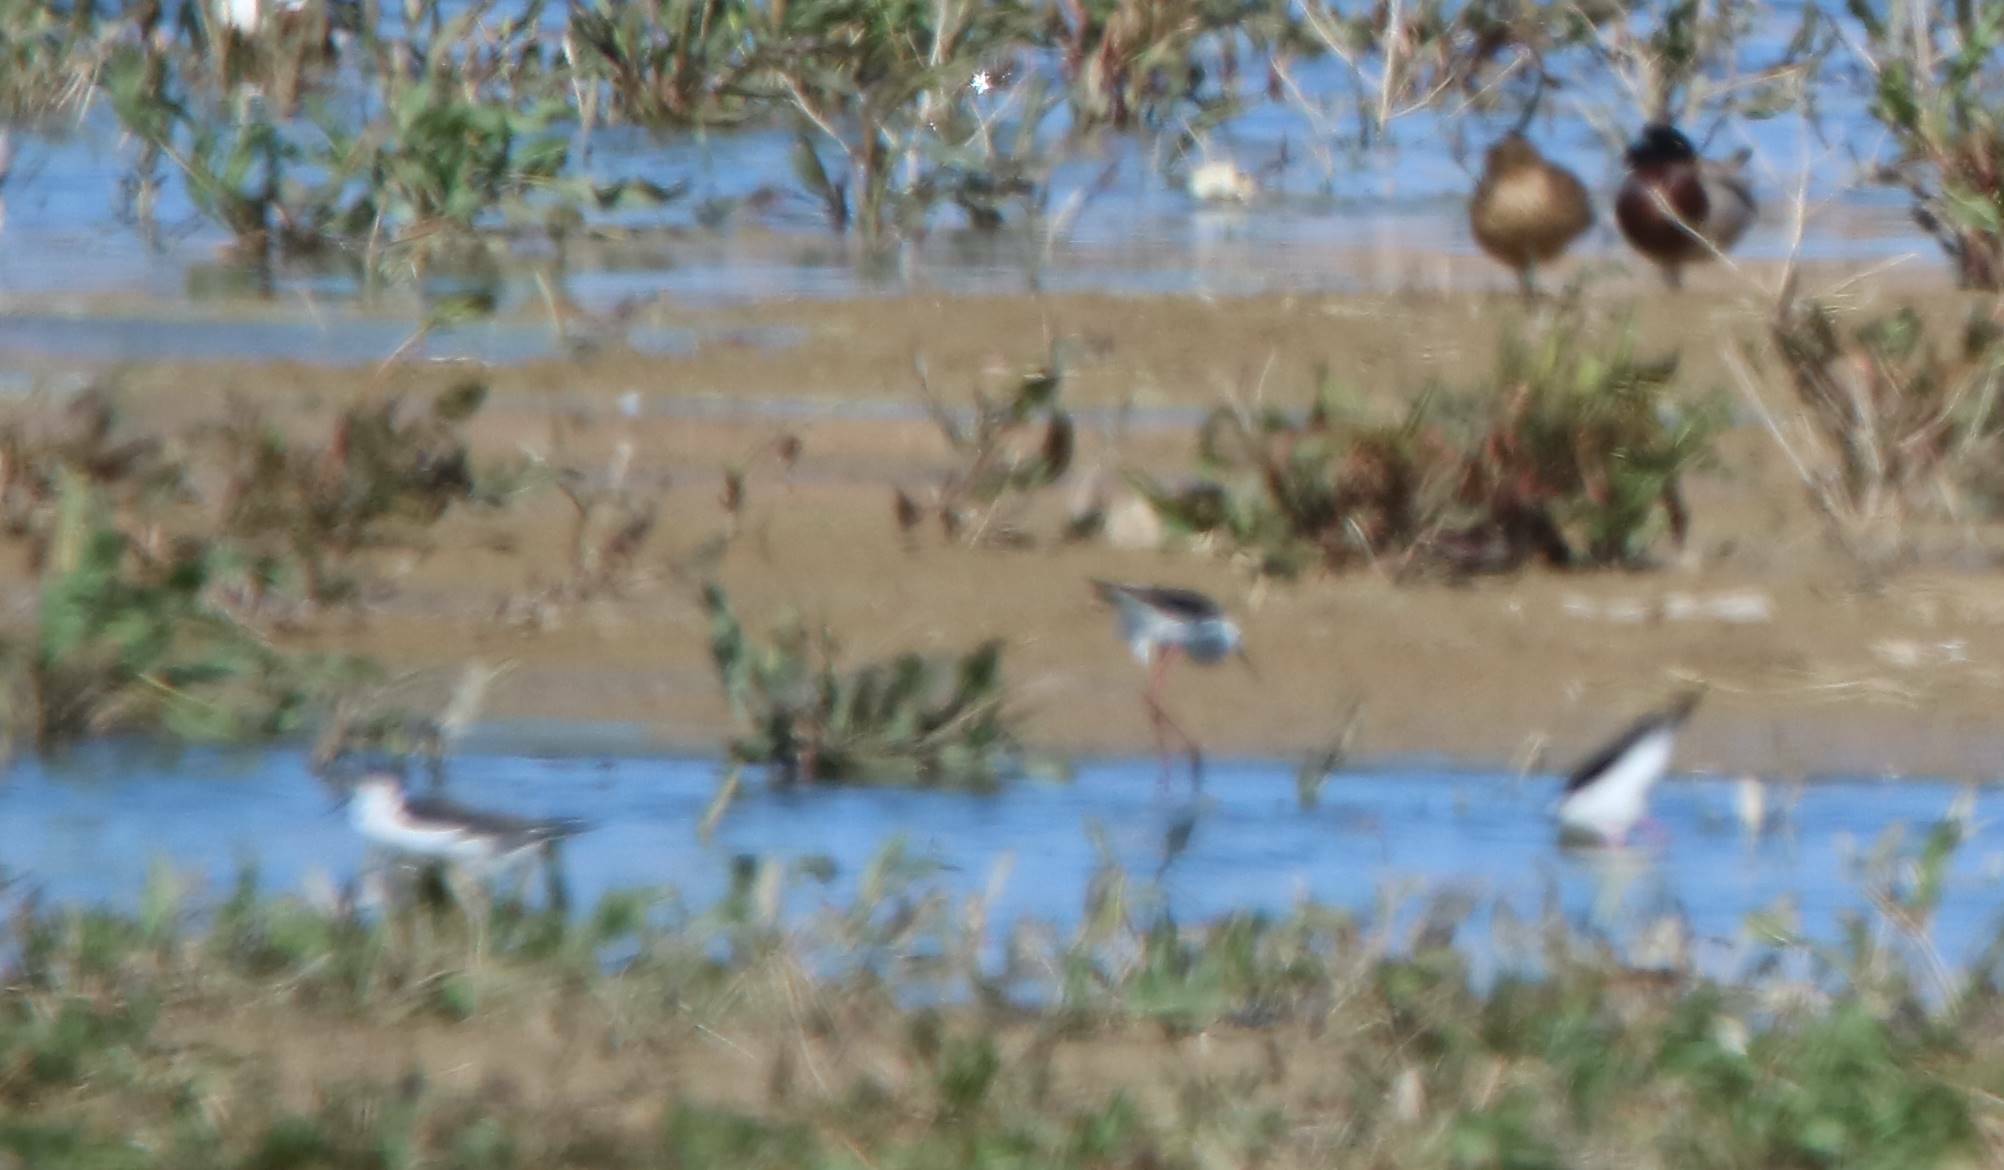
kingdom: Animalia
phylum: Chordata
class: Aves
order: Charadriiformes
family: Recurvirostridae
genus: Himantopus
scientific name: Himantopus himantopus
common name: Black-winged stilt
